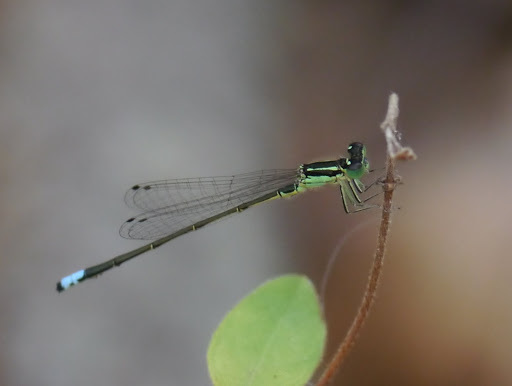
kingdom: Animalia
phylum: Arthropoda
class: Insecta
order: Odonata
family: Coenagrionidae
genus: Ischnura
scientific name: Ischnura verticalis
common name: Eastern forktail
